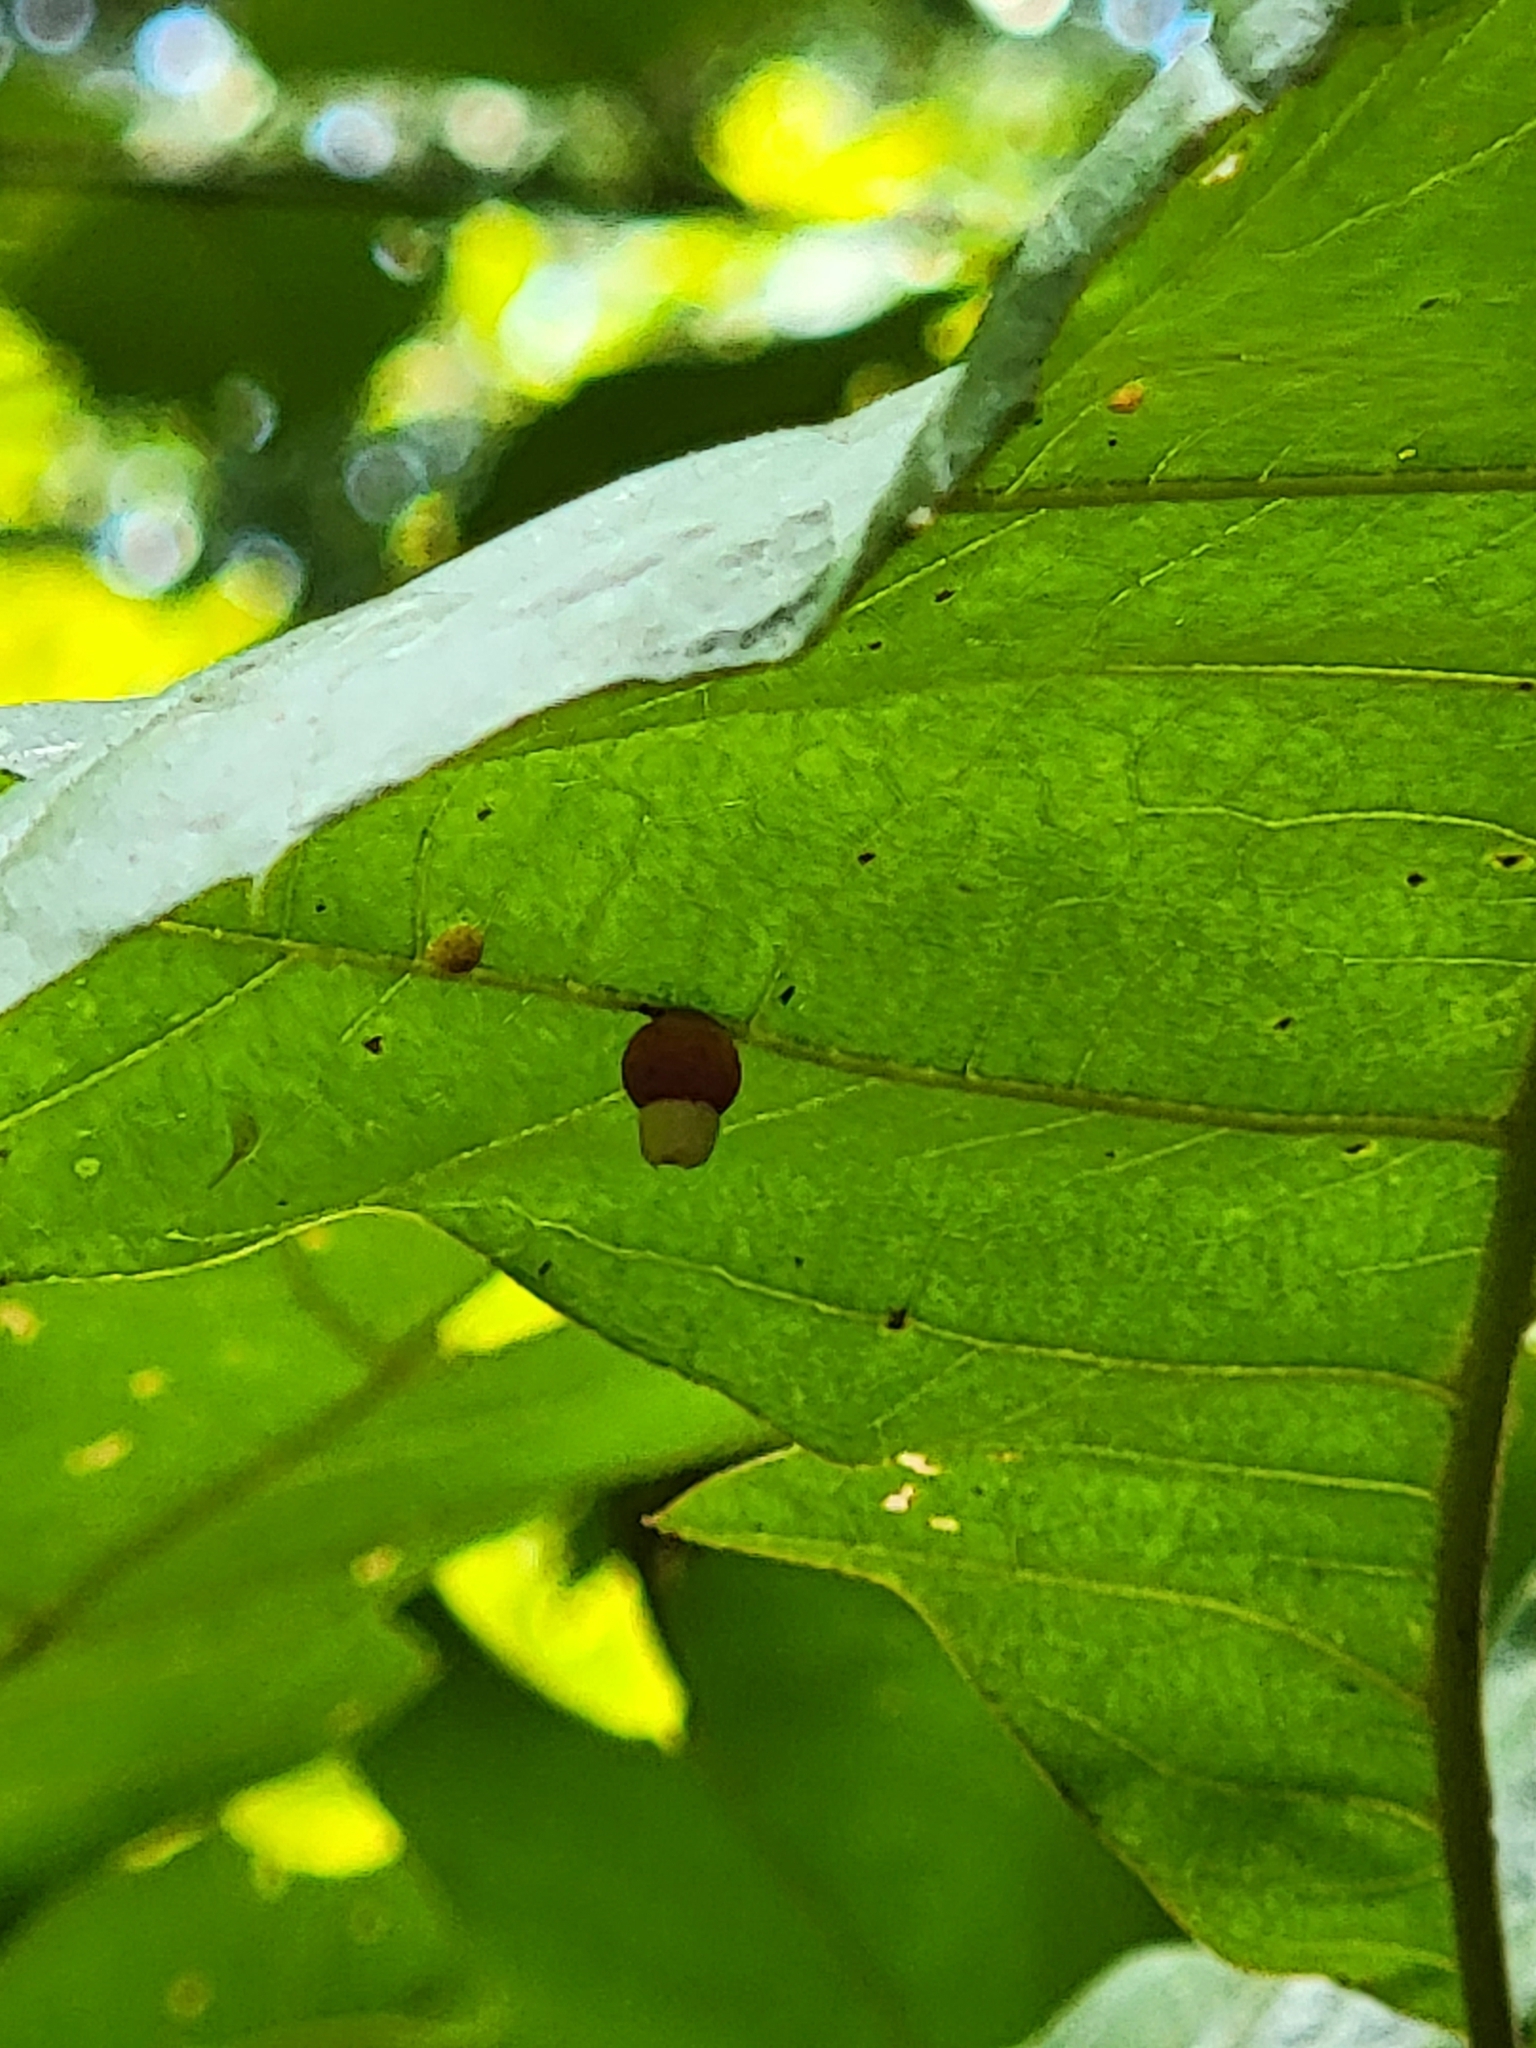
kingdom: Animalia
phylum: Arthropoda
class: Insecta
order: Hymenoptera
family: Cynipidae
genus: Kokkocynips
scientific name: Kokkocynips rileyi
